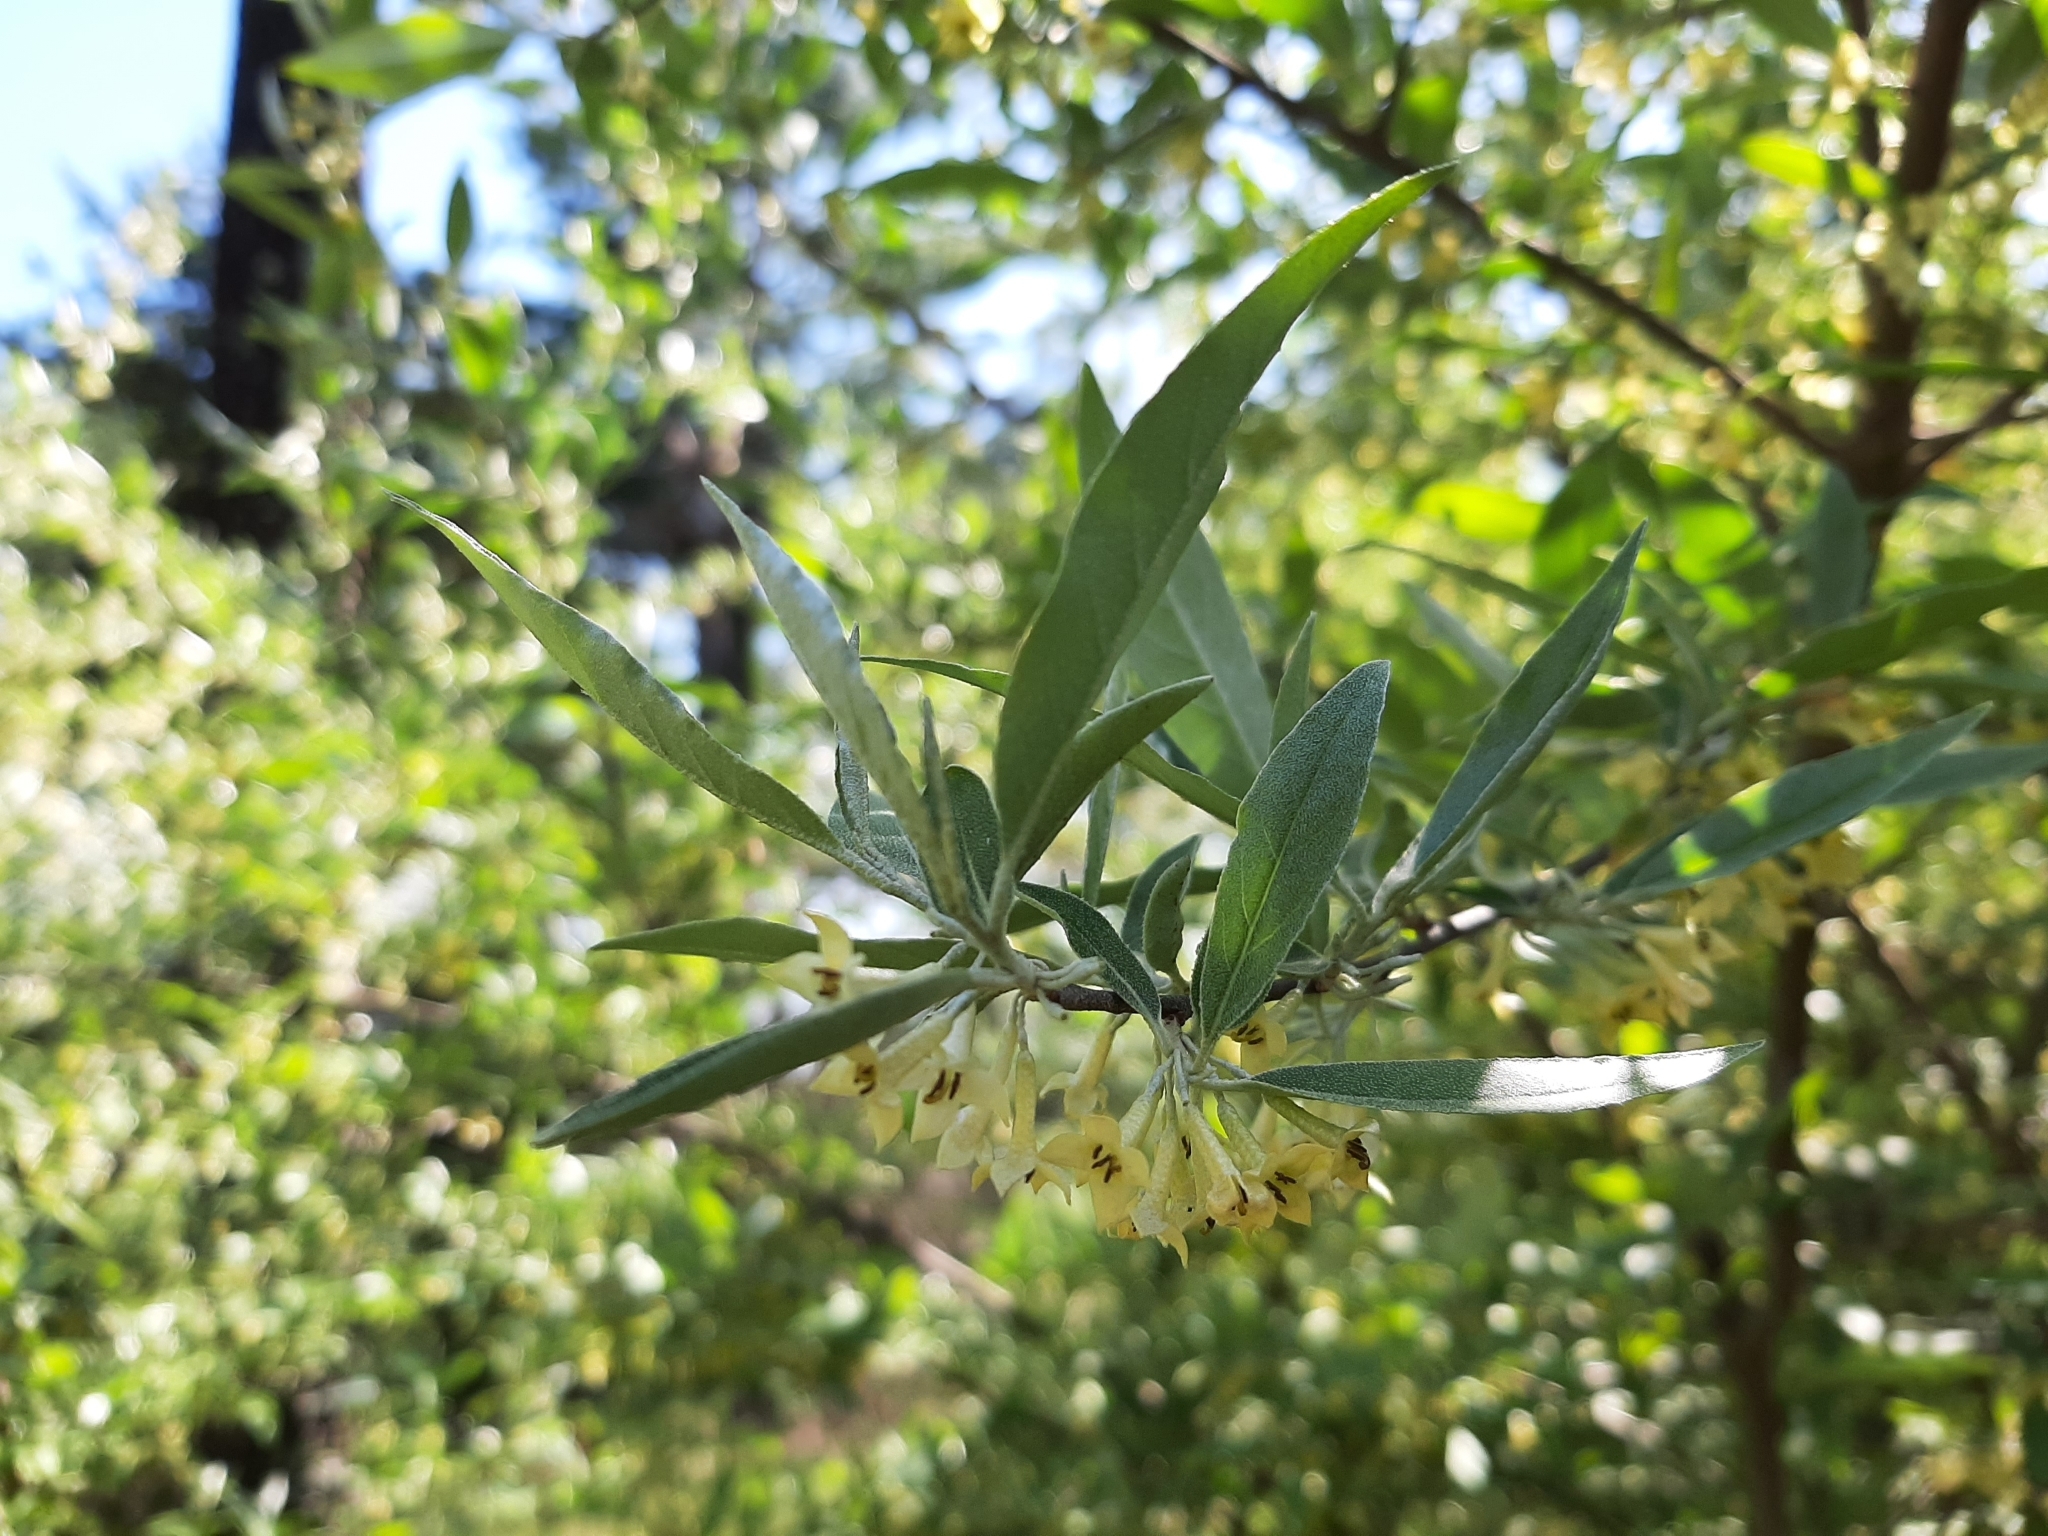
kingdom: Plantae
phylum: Tracheophyta
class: Magnoliopsida
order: Rosales
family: Elaeagnaceae
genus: Elaeagnus
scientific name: Elaeagnus umbellata
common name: Autumn olive
